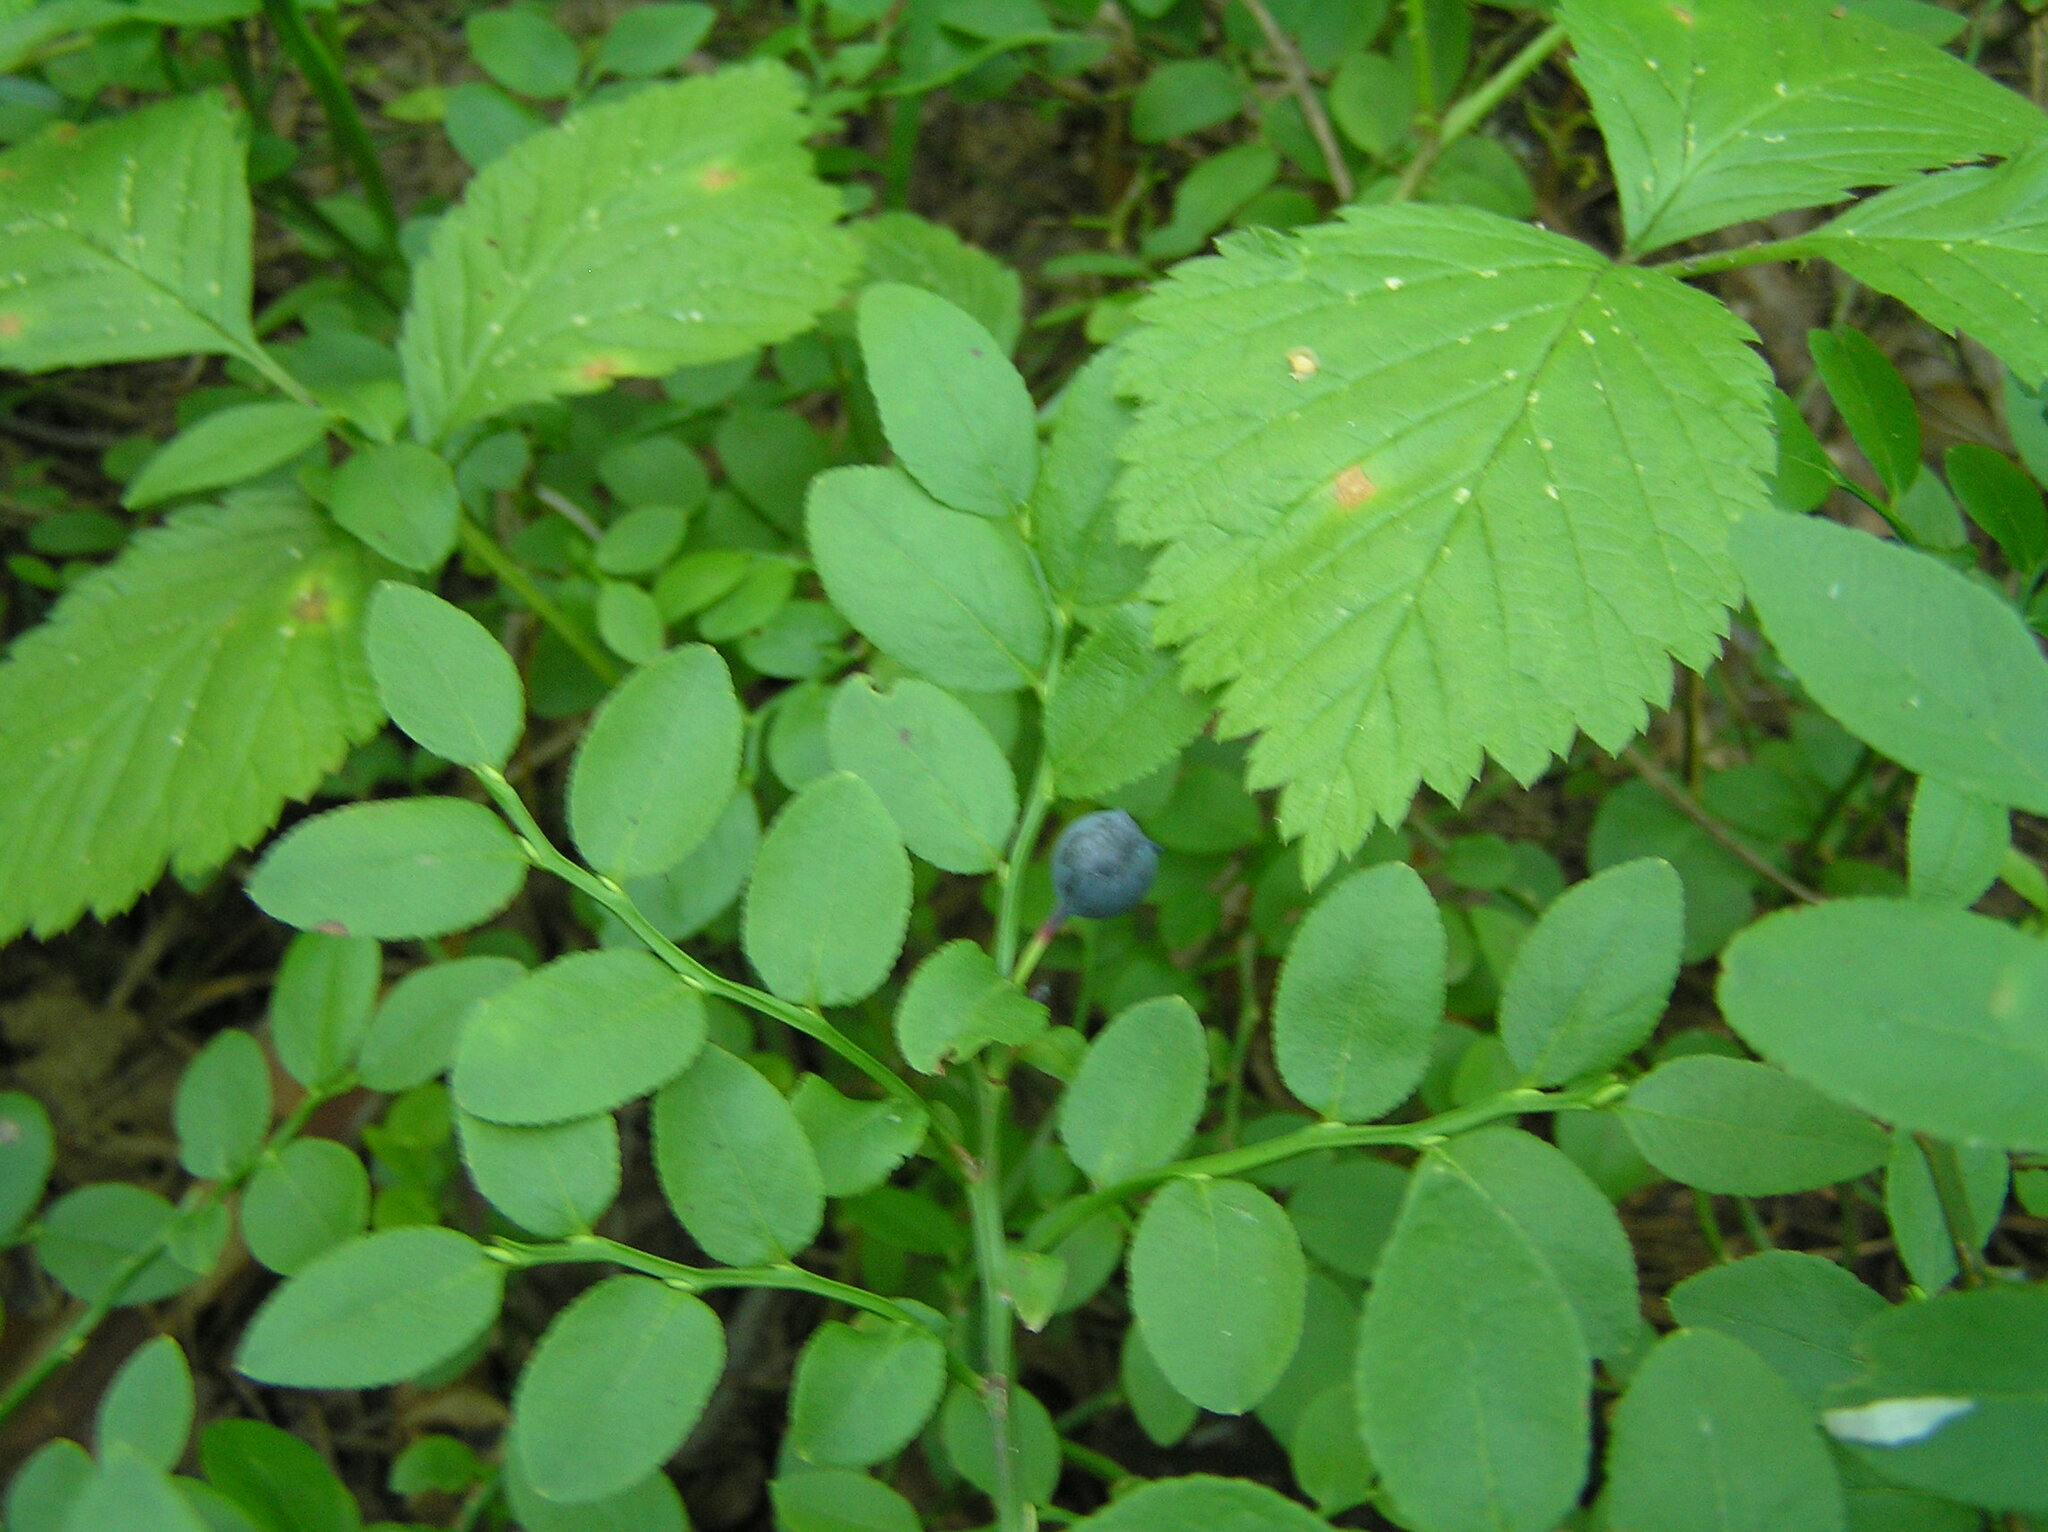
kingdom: Plantae
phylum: Tracheophyta
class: Magnoliopsida
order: Ericales
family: Ericaceae
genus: Vaccinium
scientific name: Vaccinium myrtillus
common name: Bilberry
